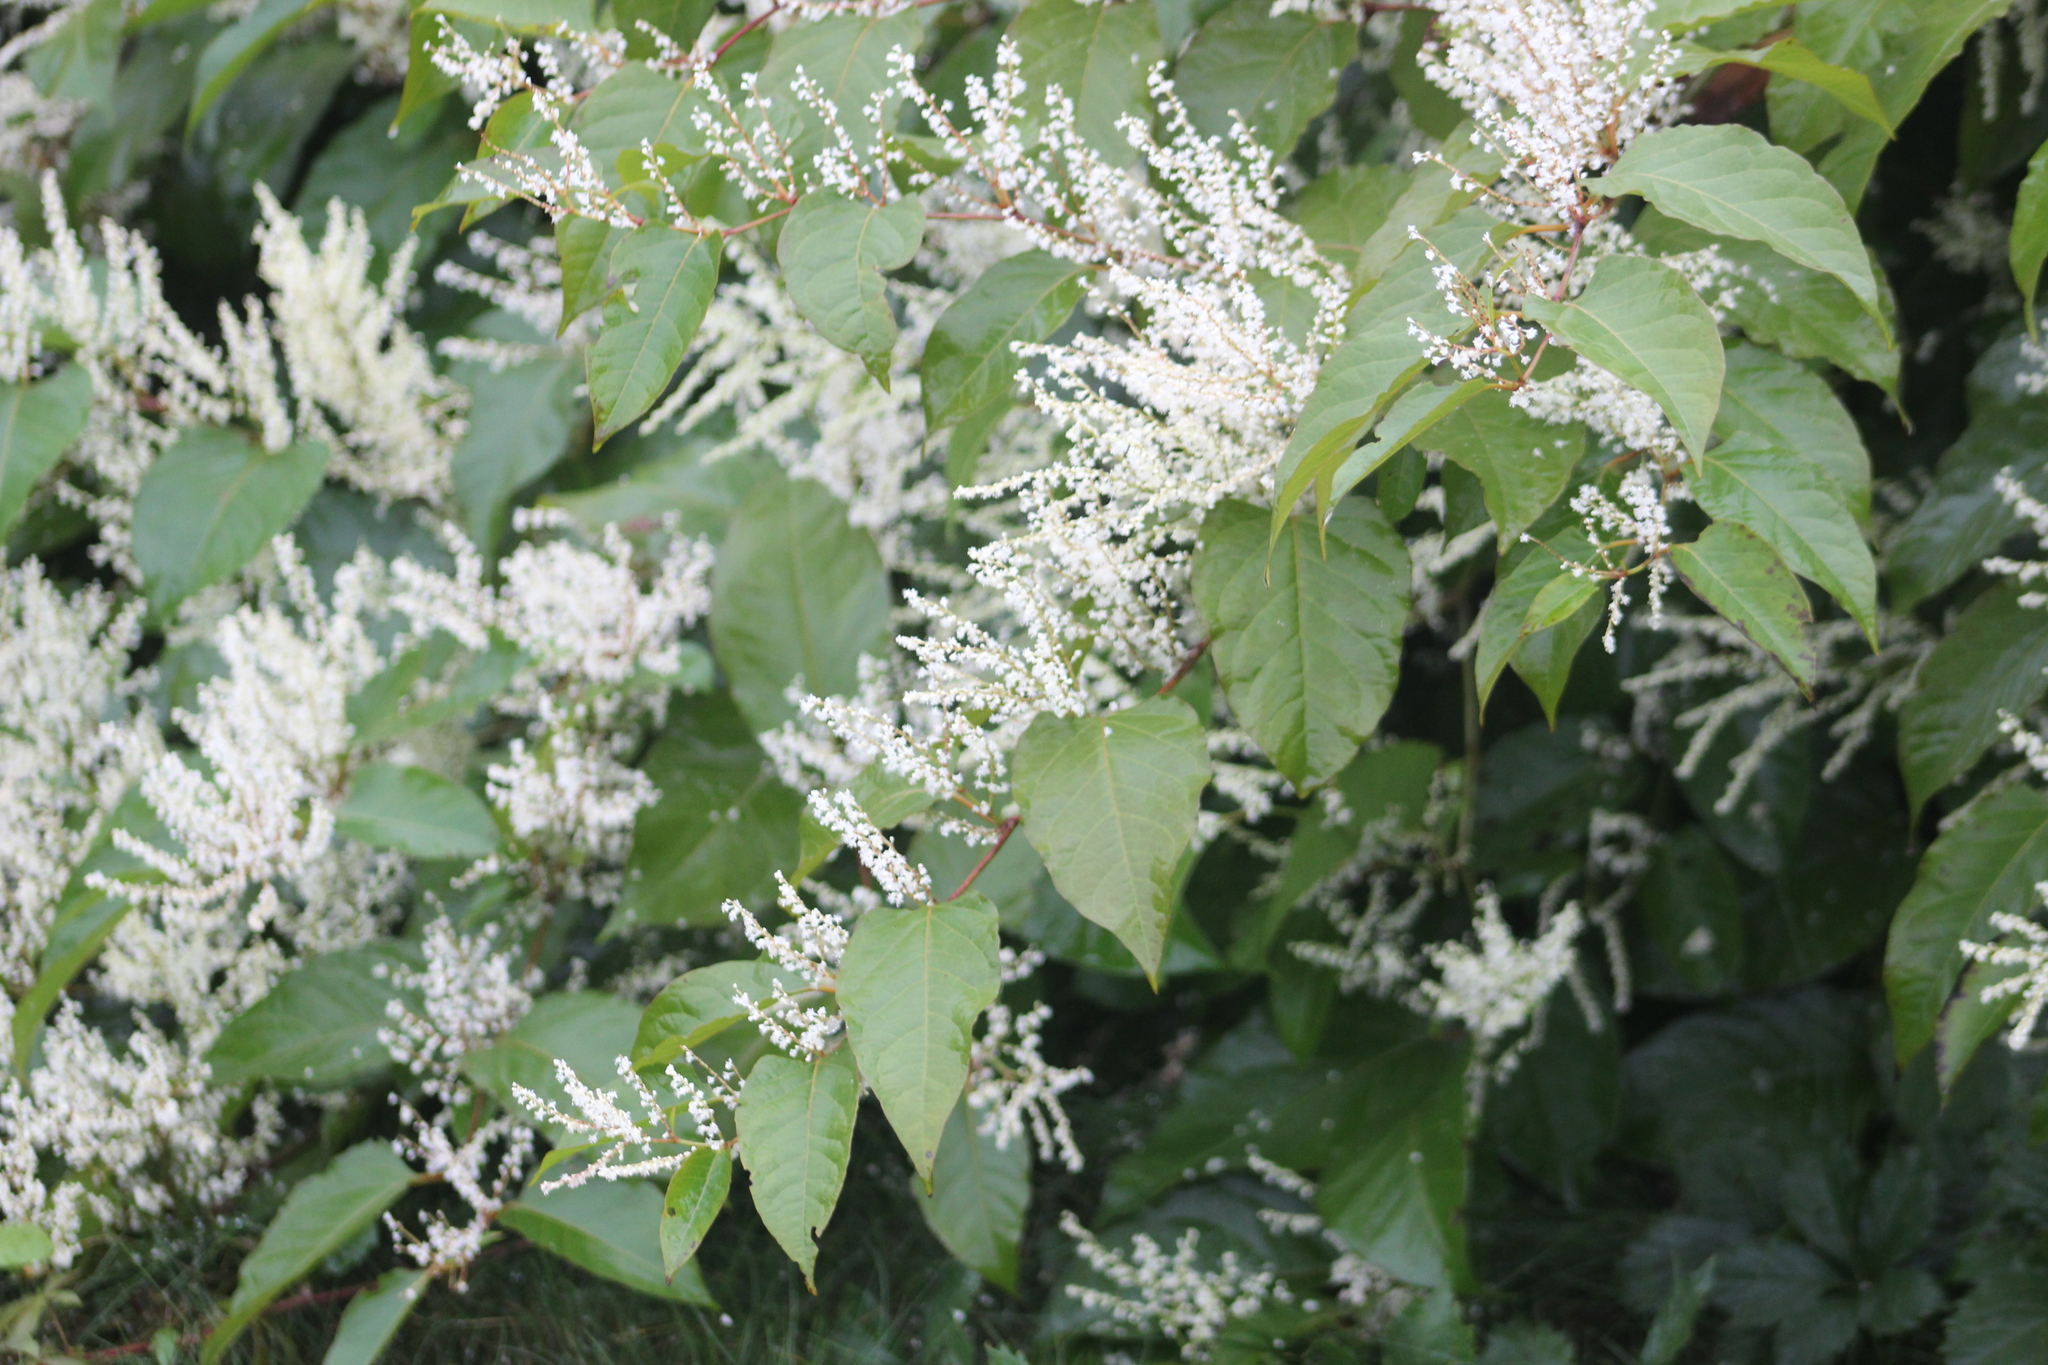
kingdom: Plantae
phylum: Tracheophyta
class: Magnoliopsida
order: Caryophyllales
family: Polygonaceae
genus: Reynoutria
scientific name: Reynoutria japonica
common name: Japanese knotweed
